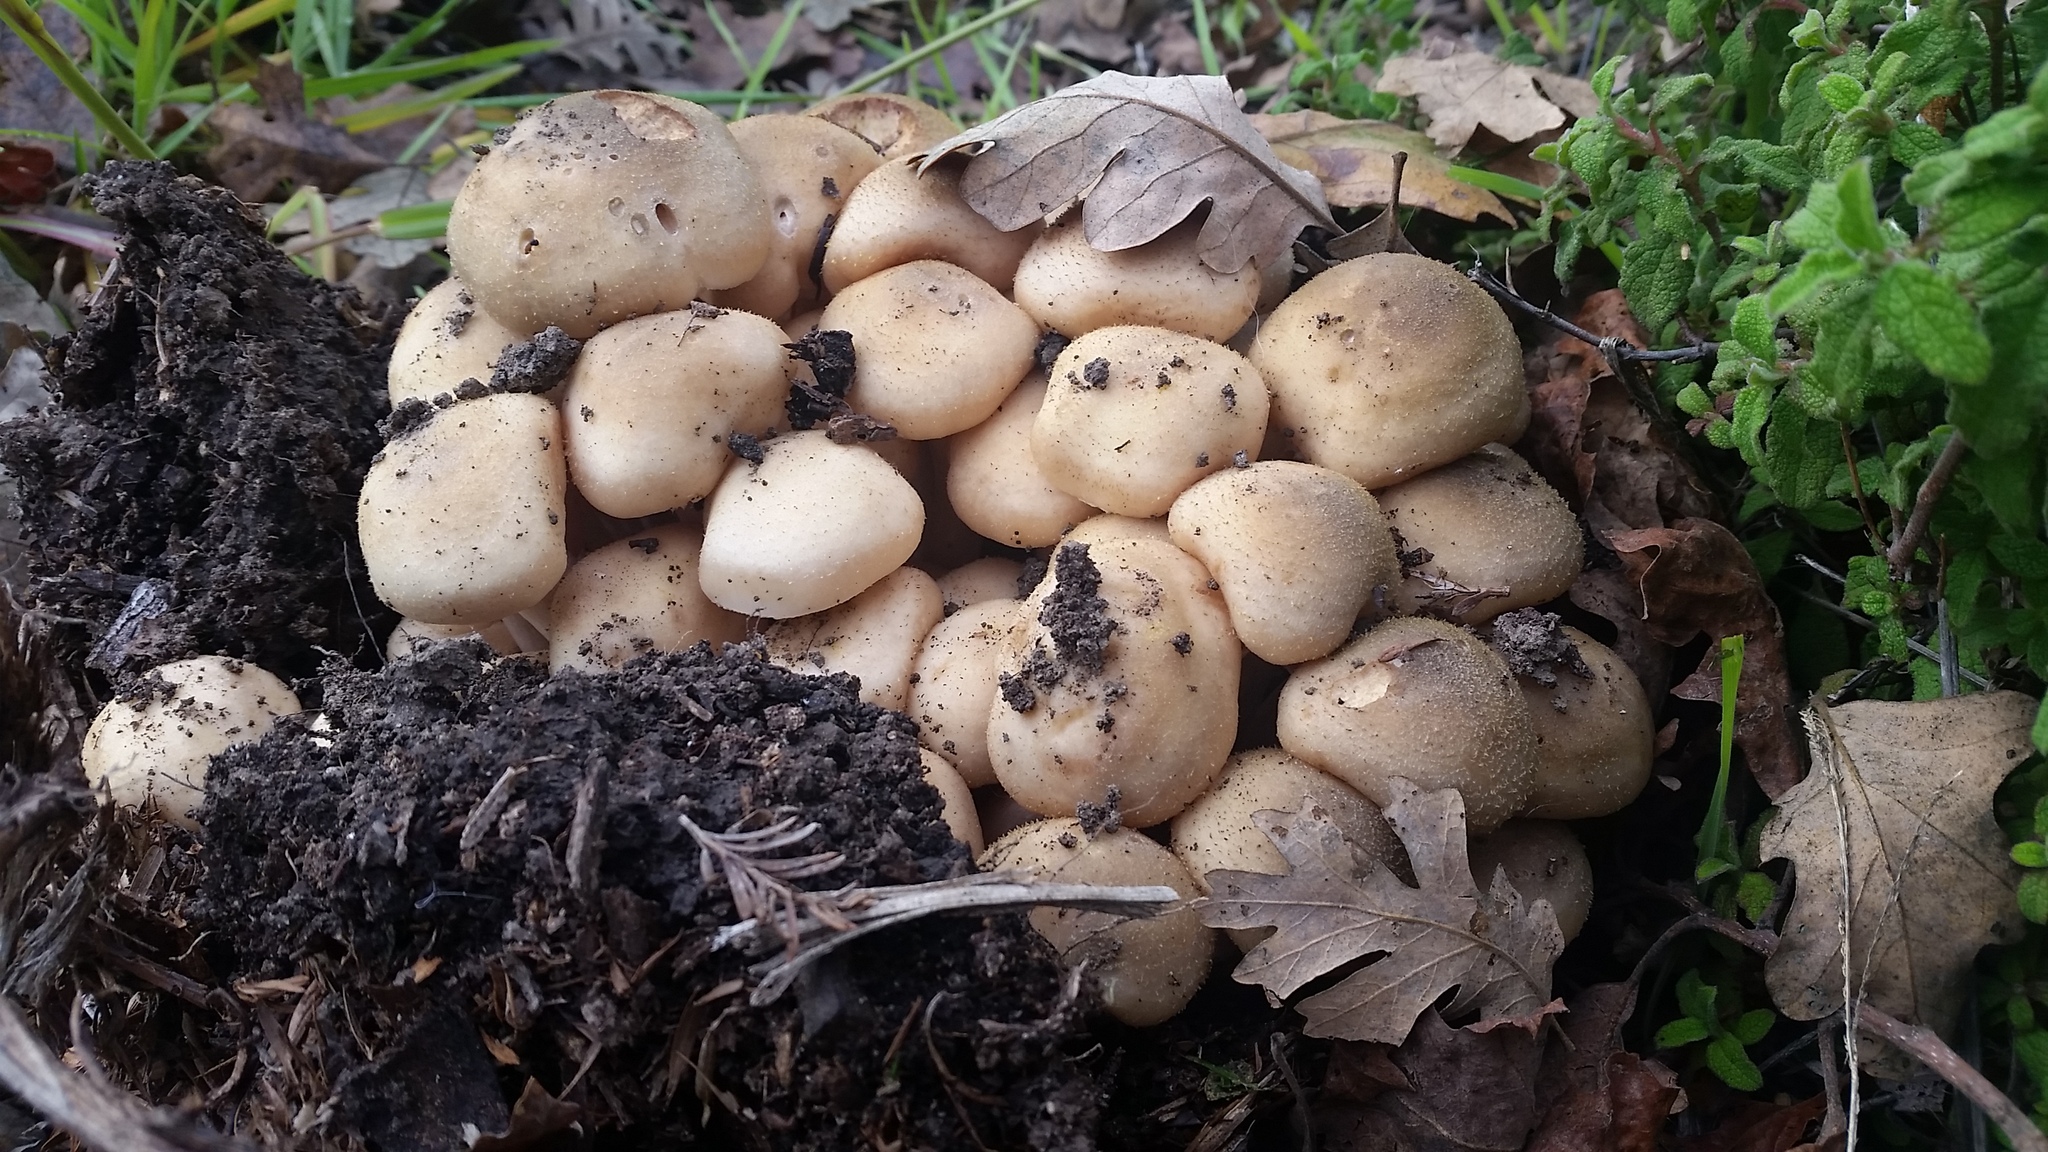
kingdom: Fungi
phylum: Basidiomycota
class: Agaricomycetes
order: Agaricales
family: Physalacriaceae
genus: Armillaria
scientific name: Armillaria mellea
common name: Honey fungus
